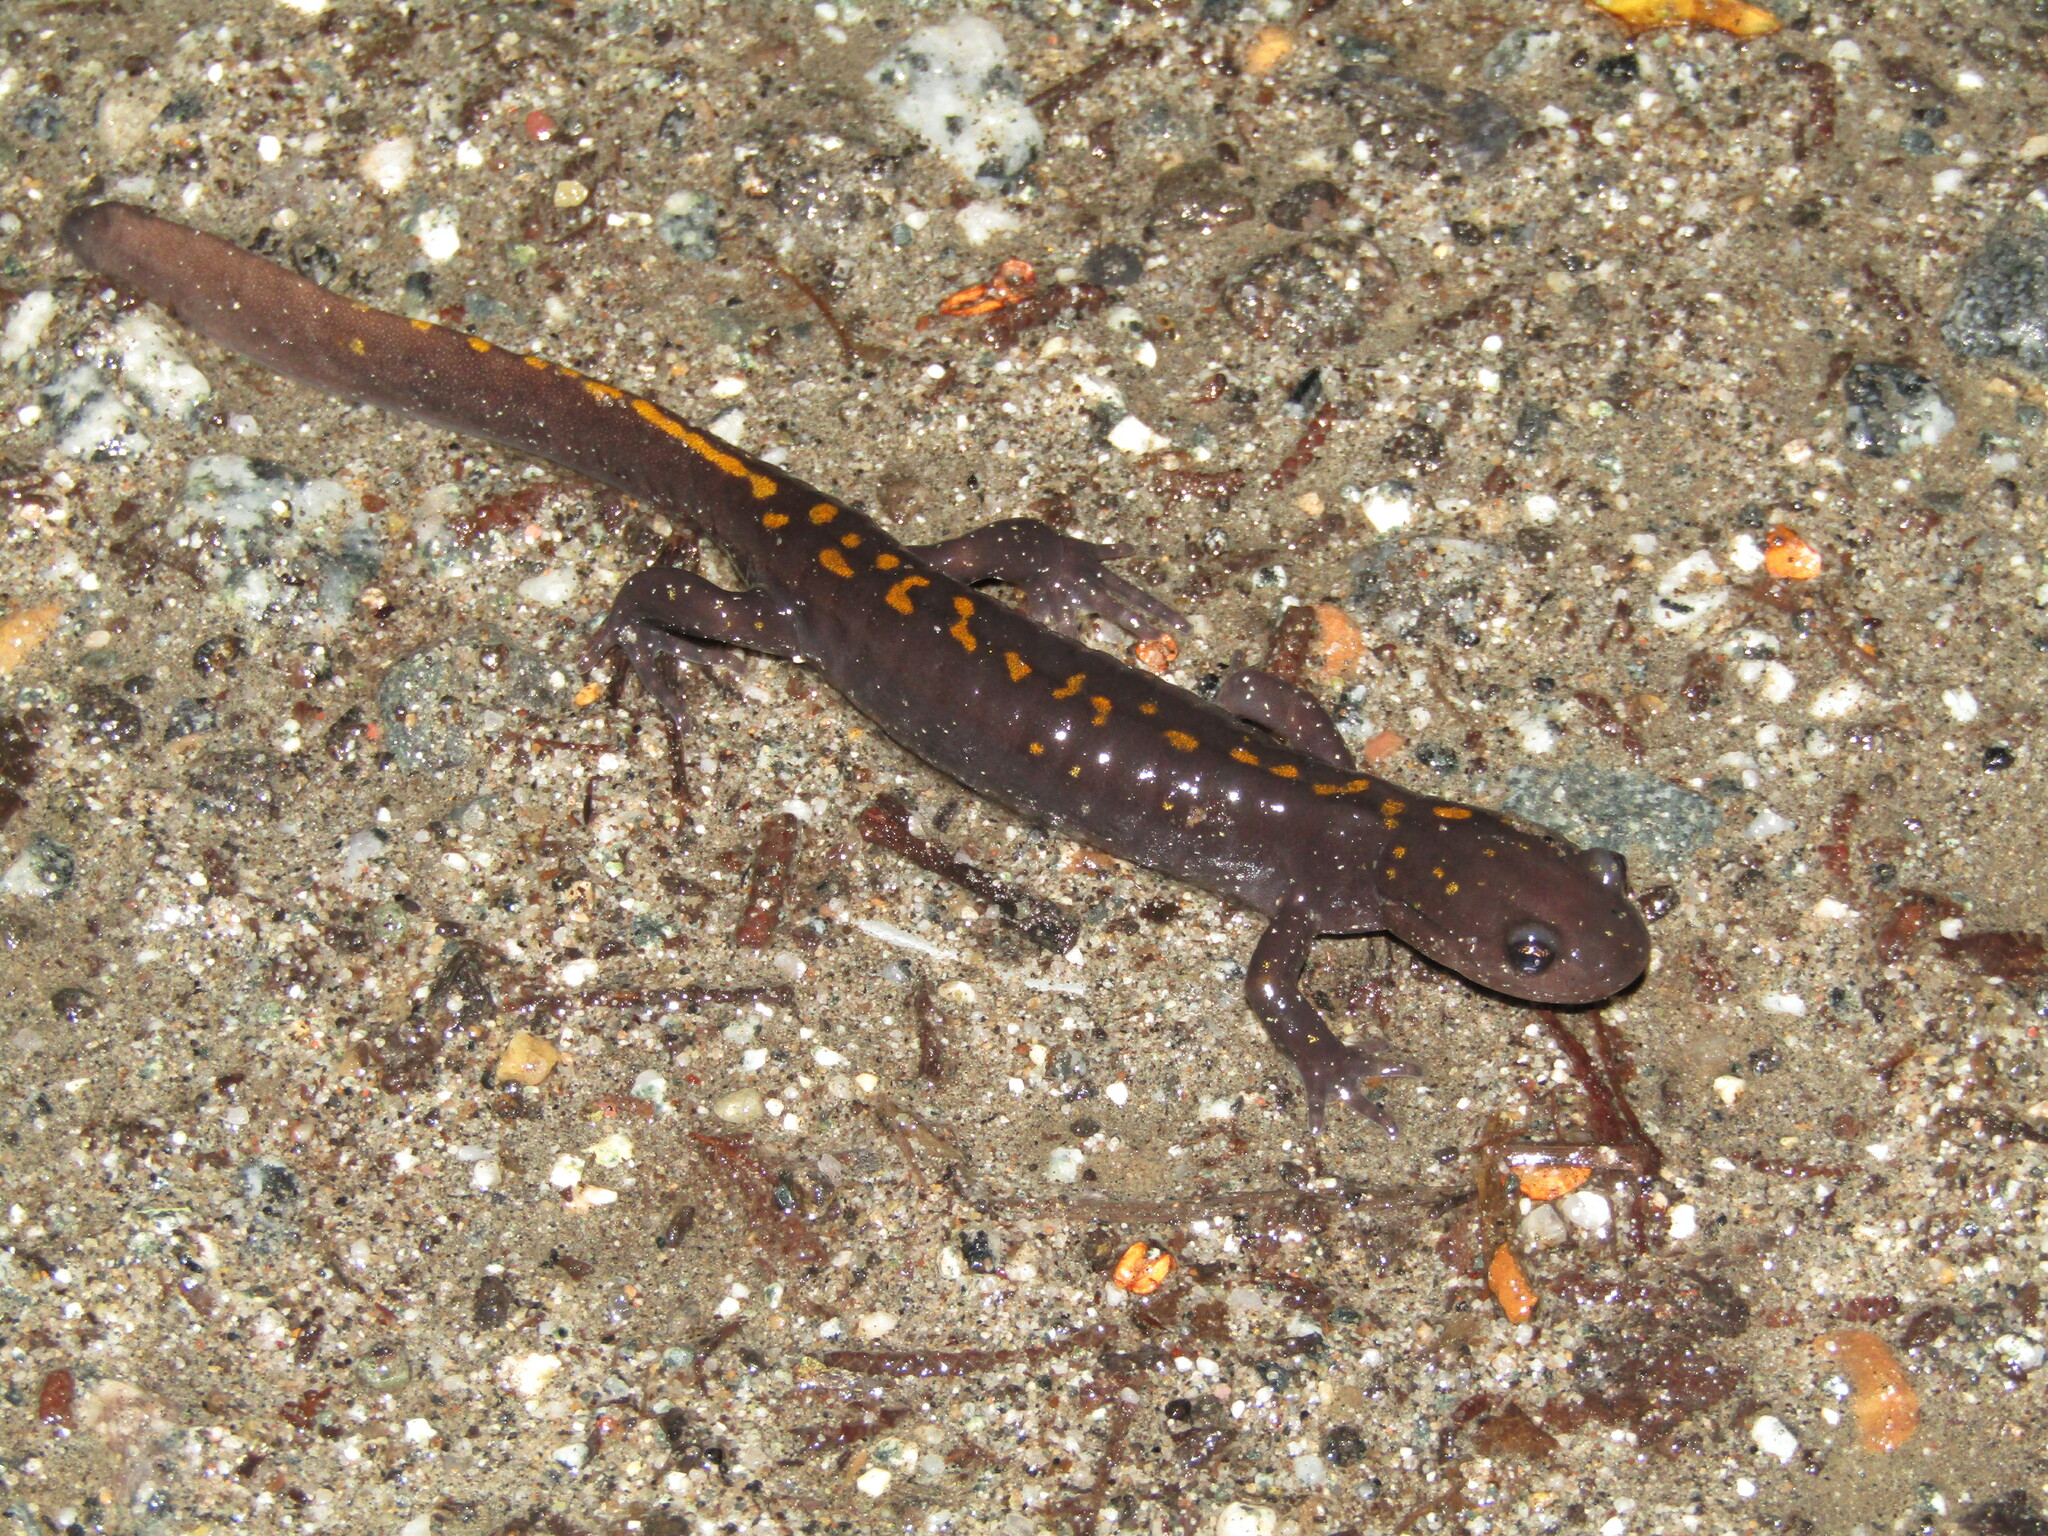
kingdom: Animalia
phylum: Chordata
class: Amphibia
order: Caudata
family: Ambystomatidae
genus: Ambystoma
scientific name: Ambystoma macrodactylum
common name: Long-toed salamander
